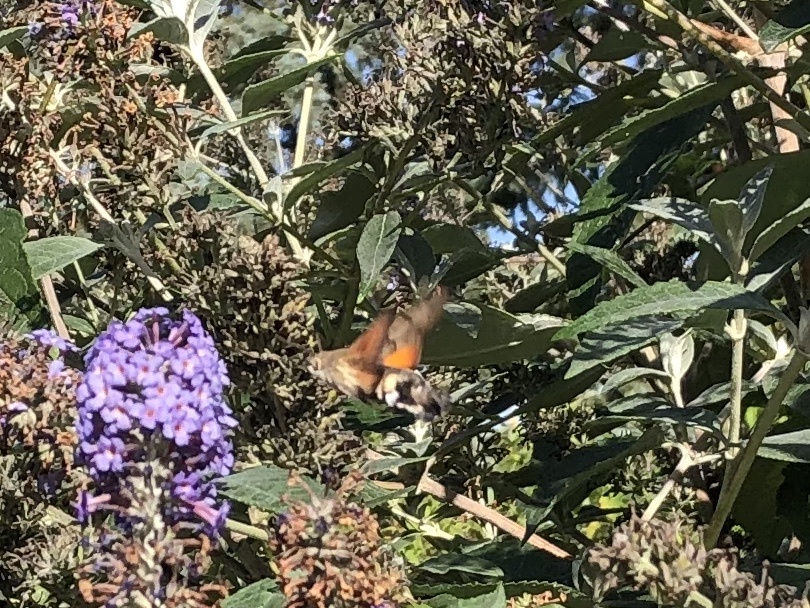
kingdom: Animalia
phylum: Arthropoda
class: Insecta
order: Lepidoptera
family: Sphingidae
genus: Macroglossum
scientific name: Macroglossum stellatarum
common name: Humming-bird hawk-moth
